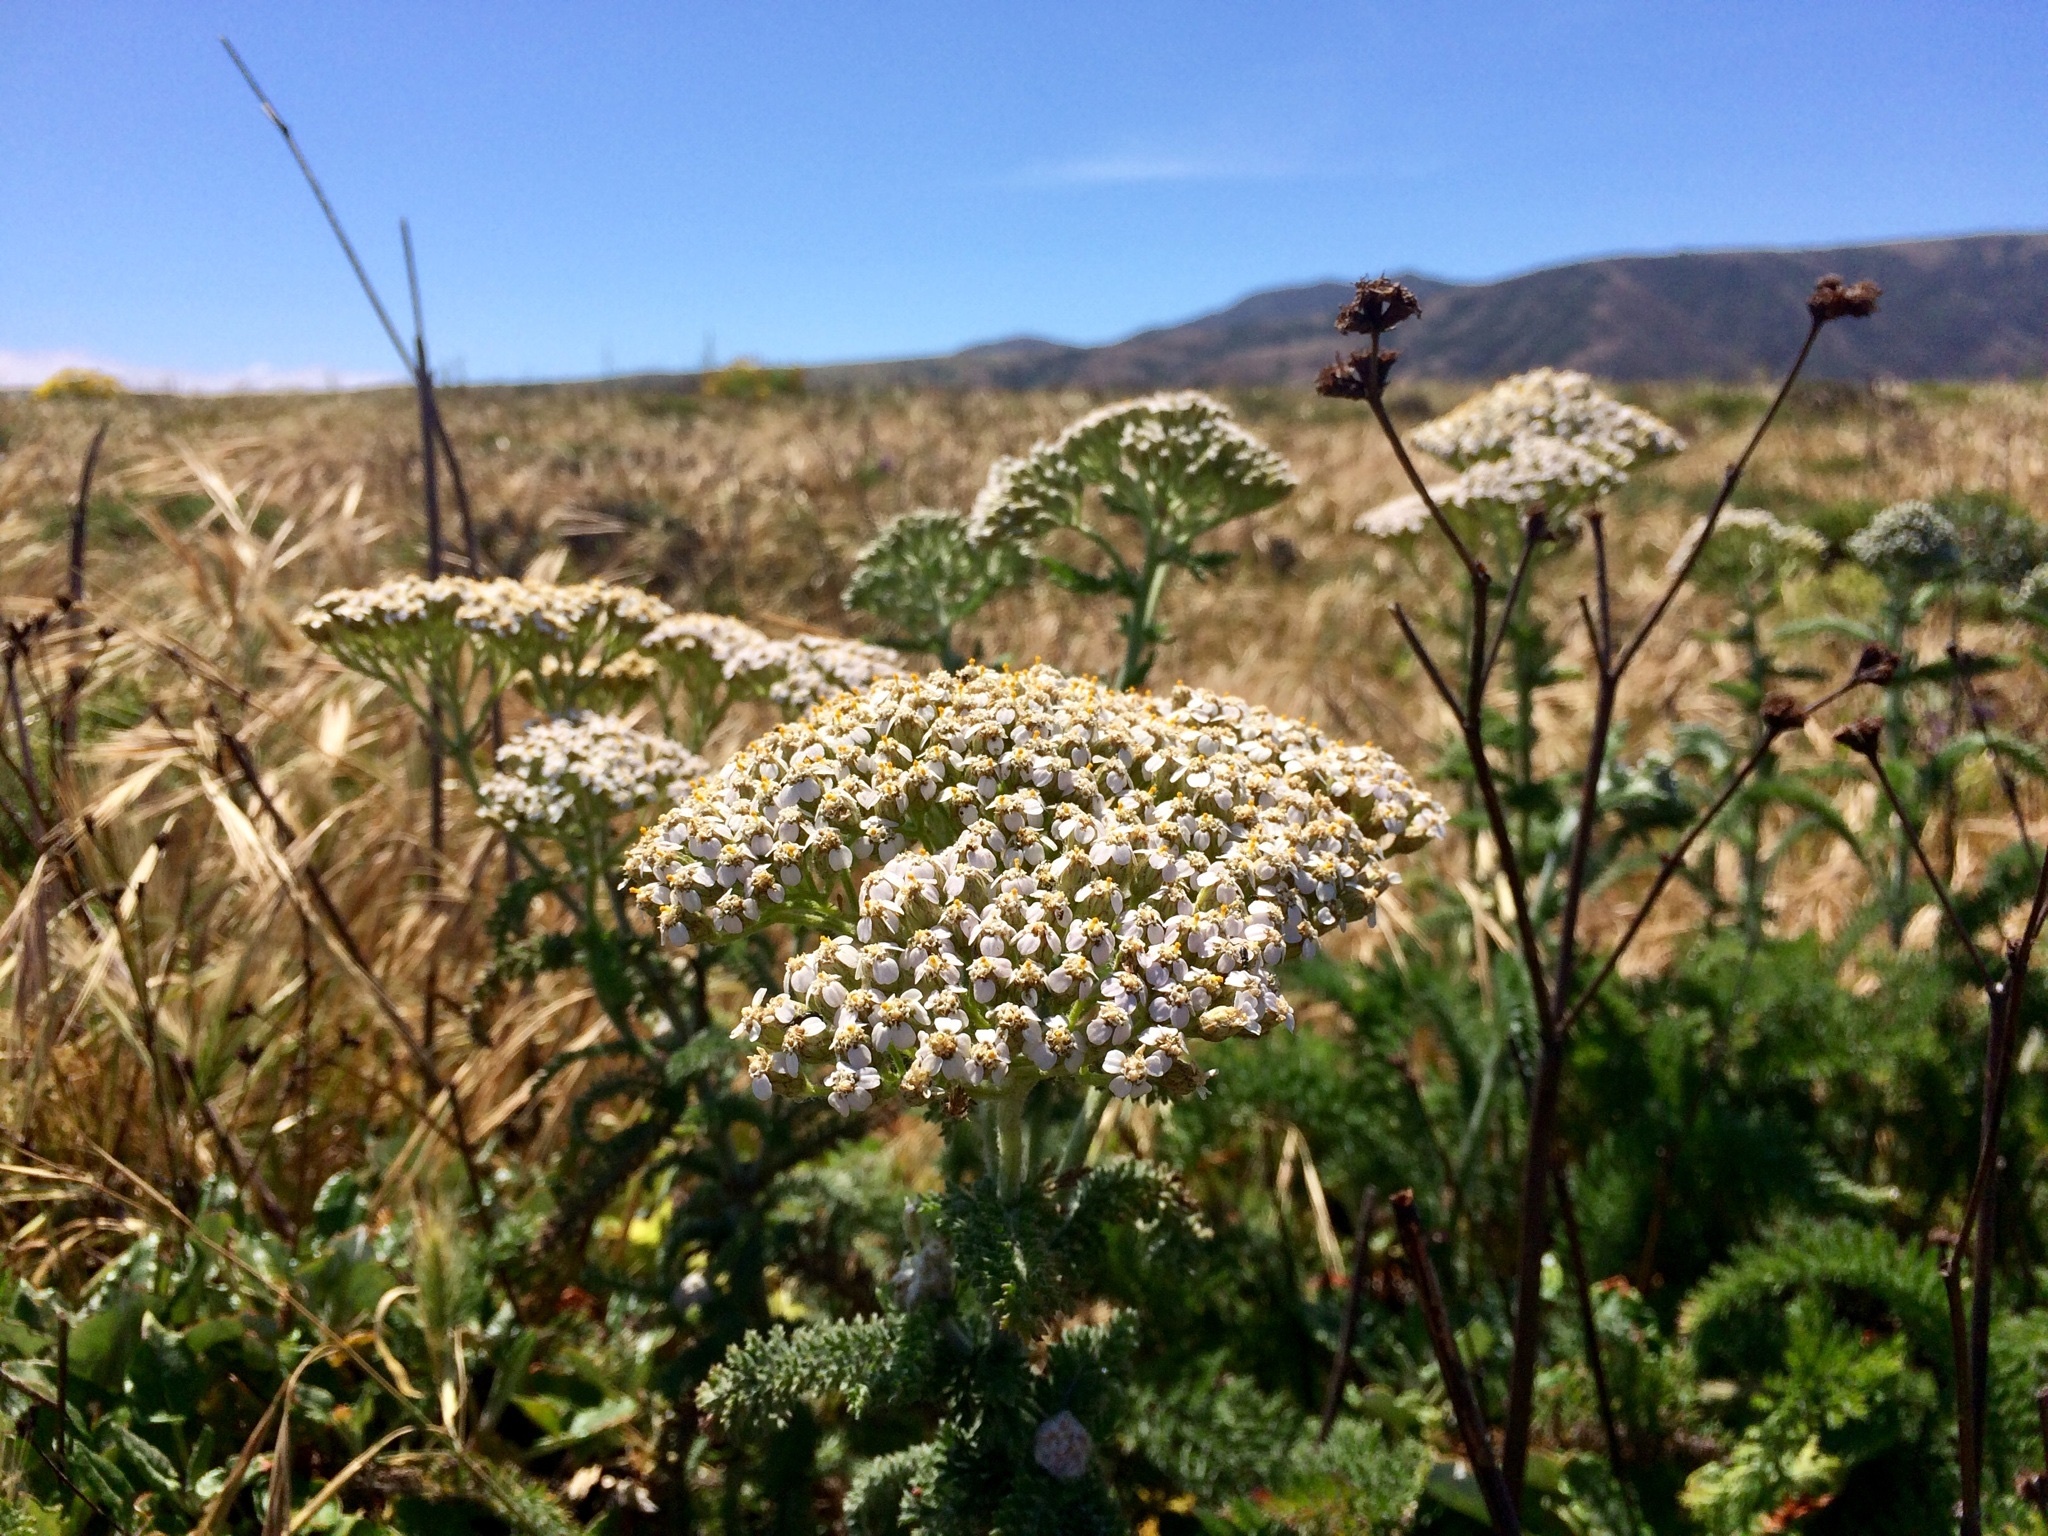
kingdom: Plantae
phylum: Tracheophyta
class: Magnoliopsida
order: Asterales
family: Asteraceae
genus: Achillea
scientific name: Achillea millefolium
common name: Yarrow
